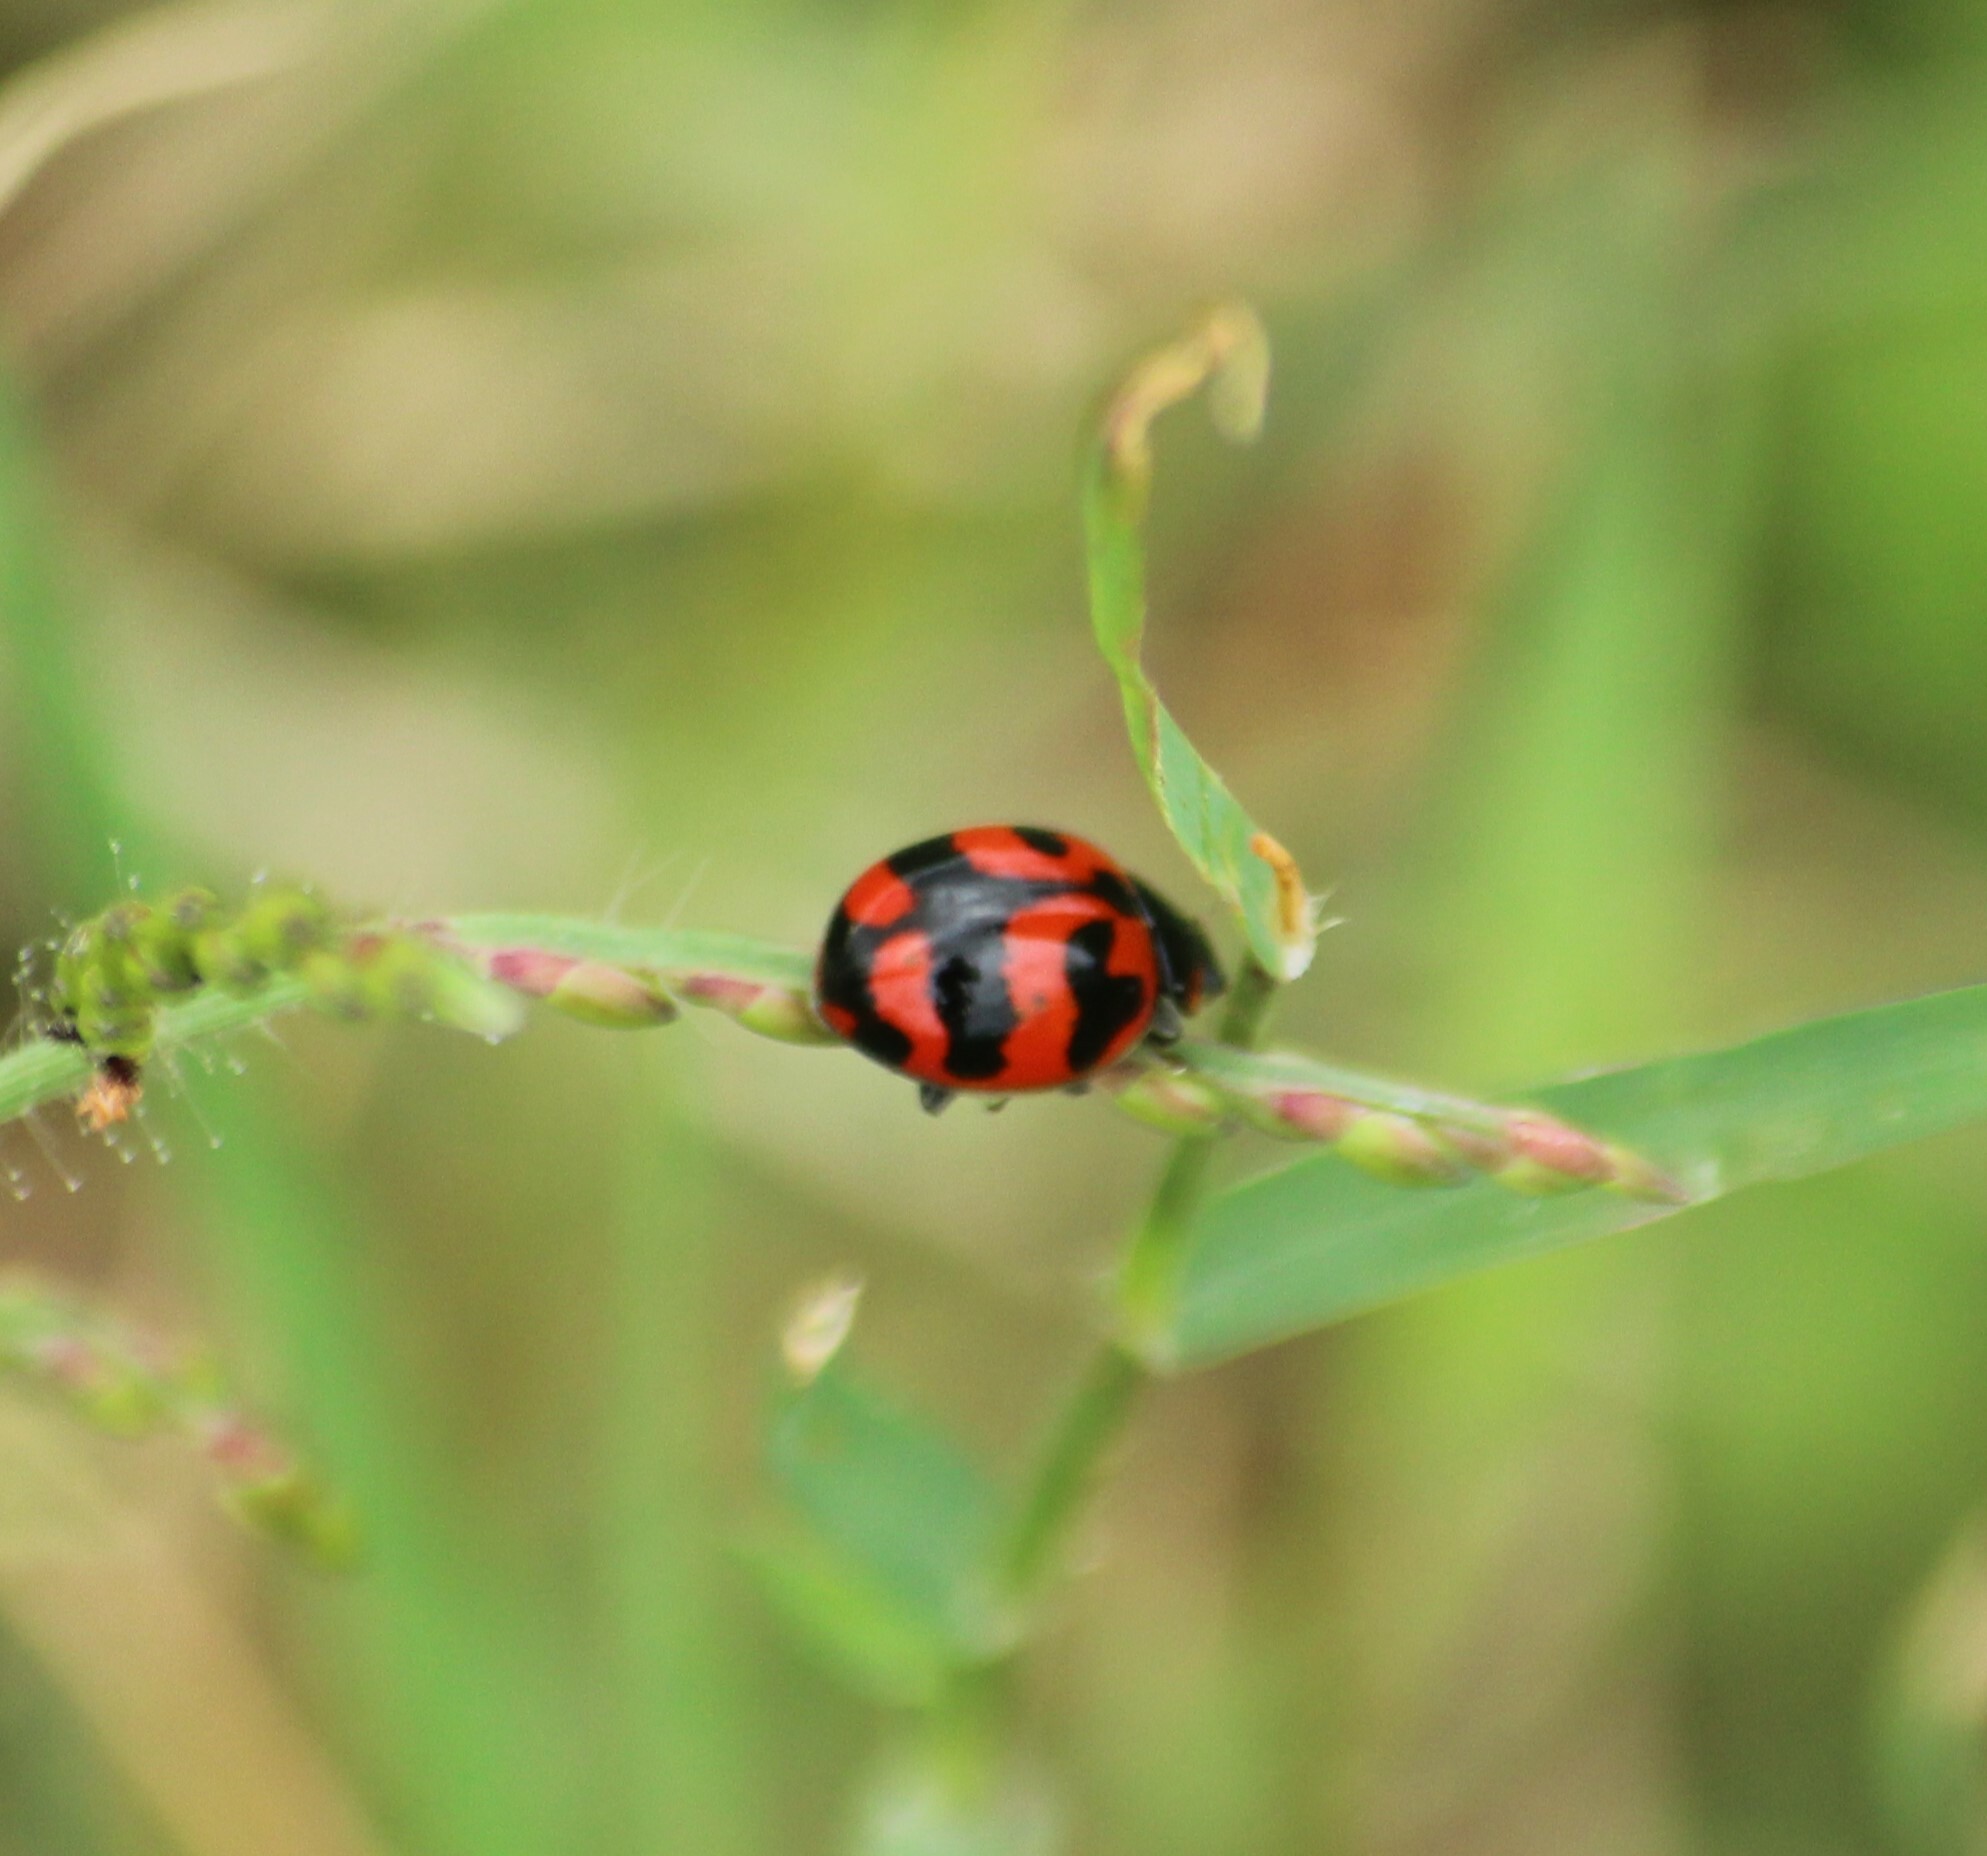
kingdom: Animalia
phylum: Arthropoda
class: Insecta
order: Coleoptera
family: Coccinellidae
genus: Coccinella
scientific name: Coccinella transversalis
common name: Transverse lady beetle
